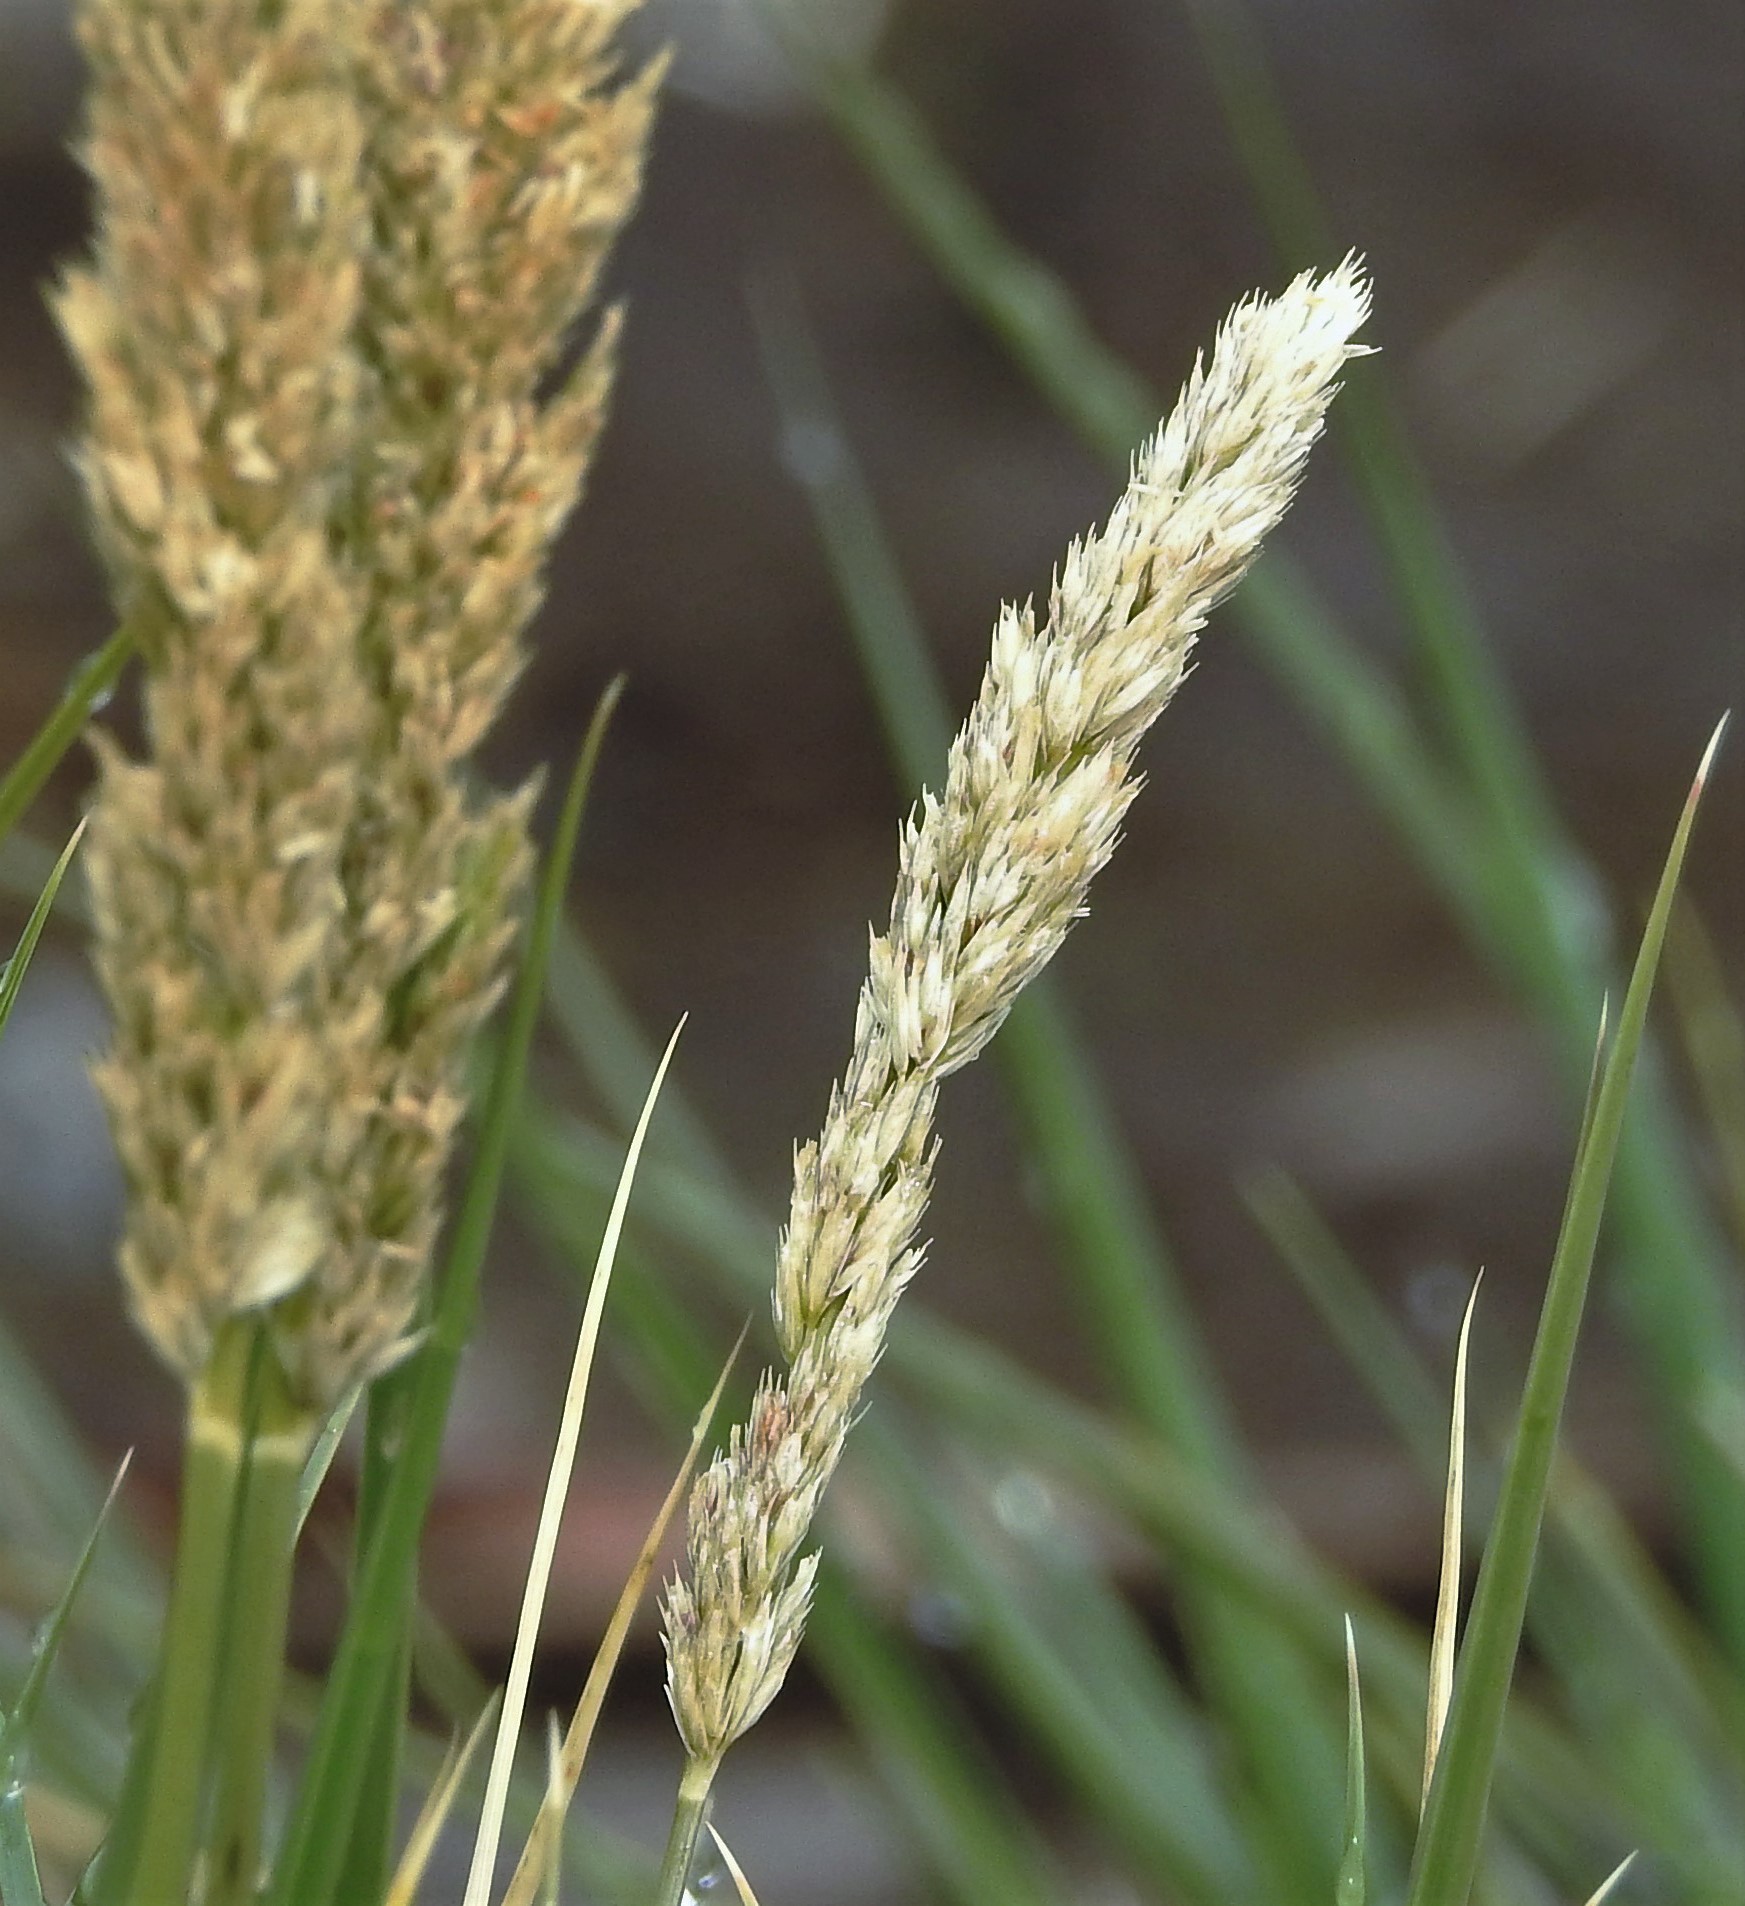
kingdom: Plantae
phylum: Tracheophyta
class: Liliopsida
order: Poales
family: Poaceae
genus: Poa
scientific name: Poa flabellata
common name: Tussac-grass
